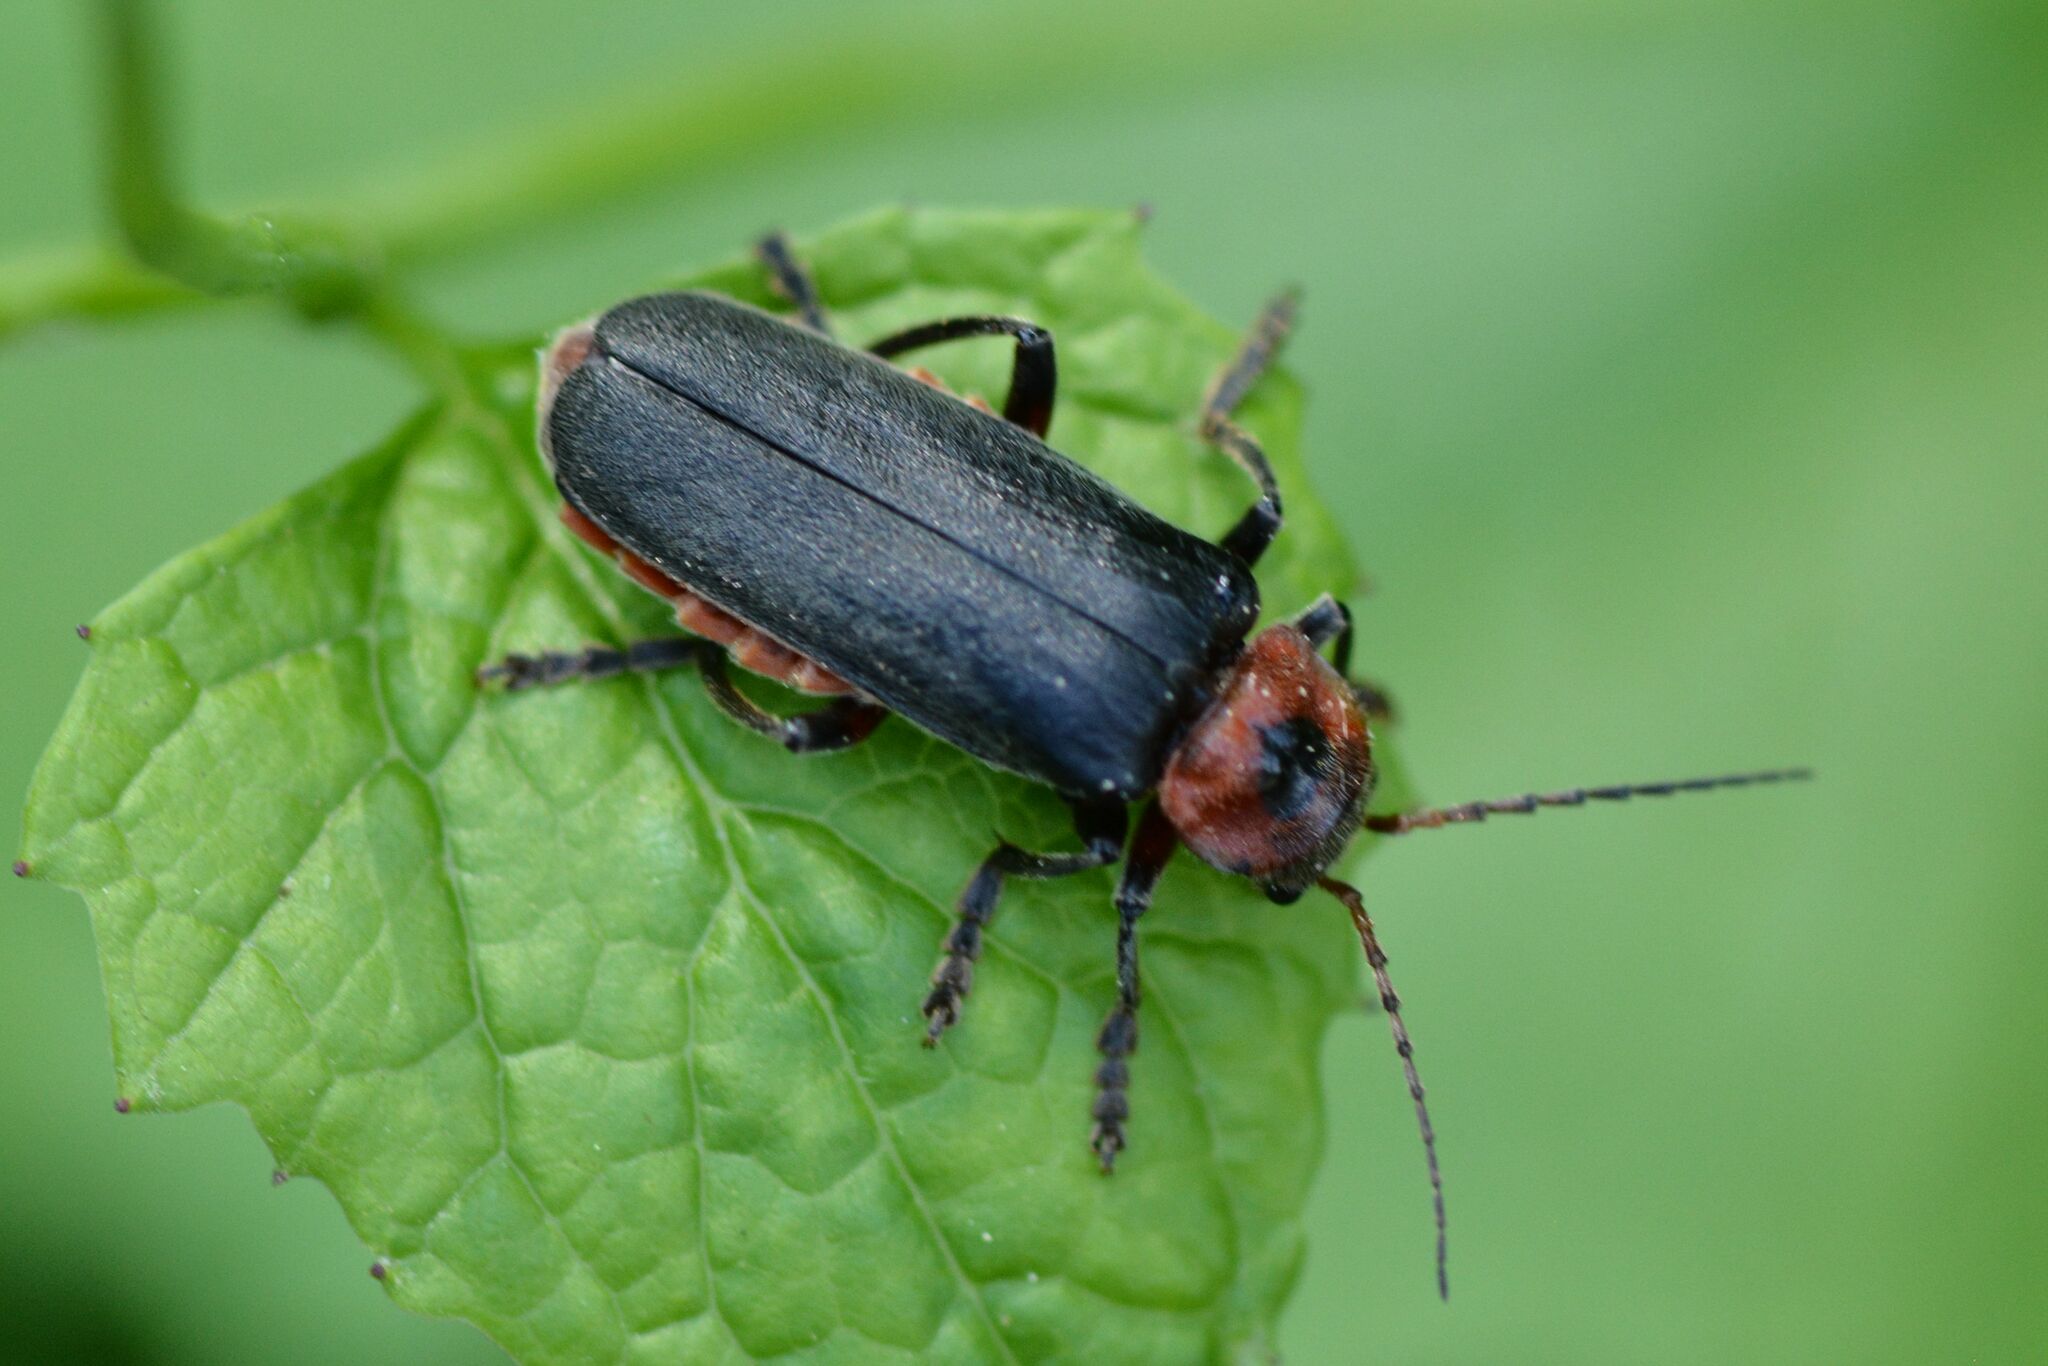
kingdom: Animalia
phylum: Arthropoda
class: Insecta
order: Coleoptera
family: Cantharidae
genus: Cantharis
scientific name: Cantharis rustica
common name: Soldier beetle
